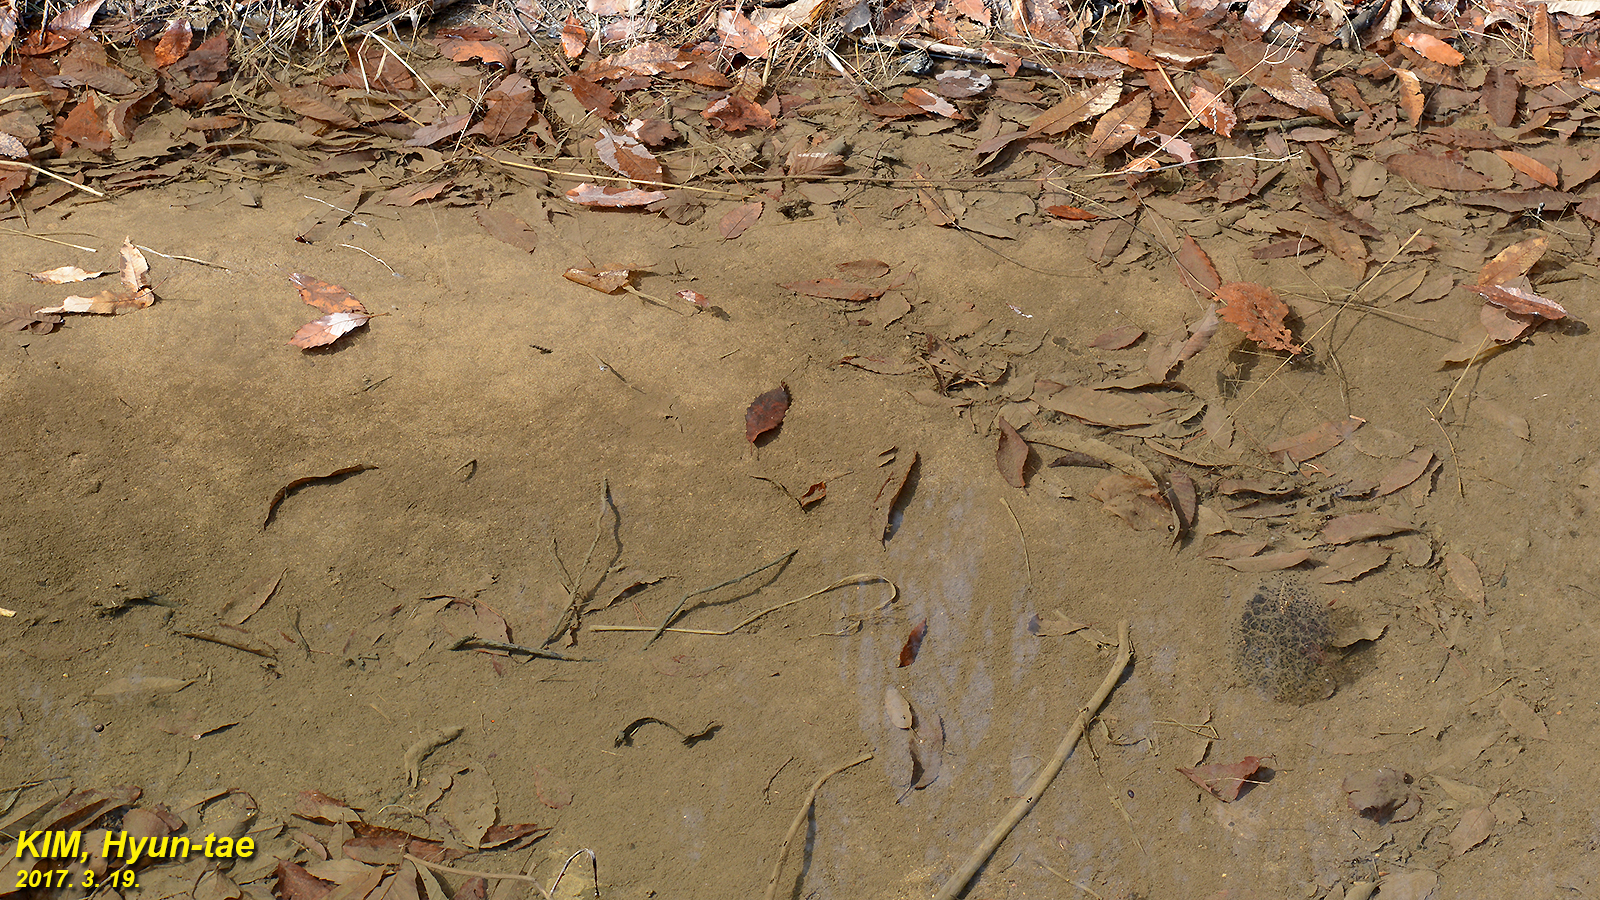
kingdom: Animalia
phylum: Chordata
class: Amphibia
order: Anura
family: Ranidae
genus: Rana
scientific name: Rana uenoi
